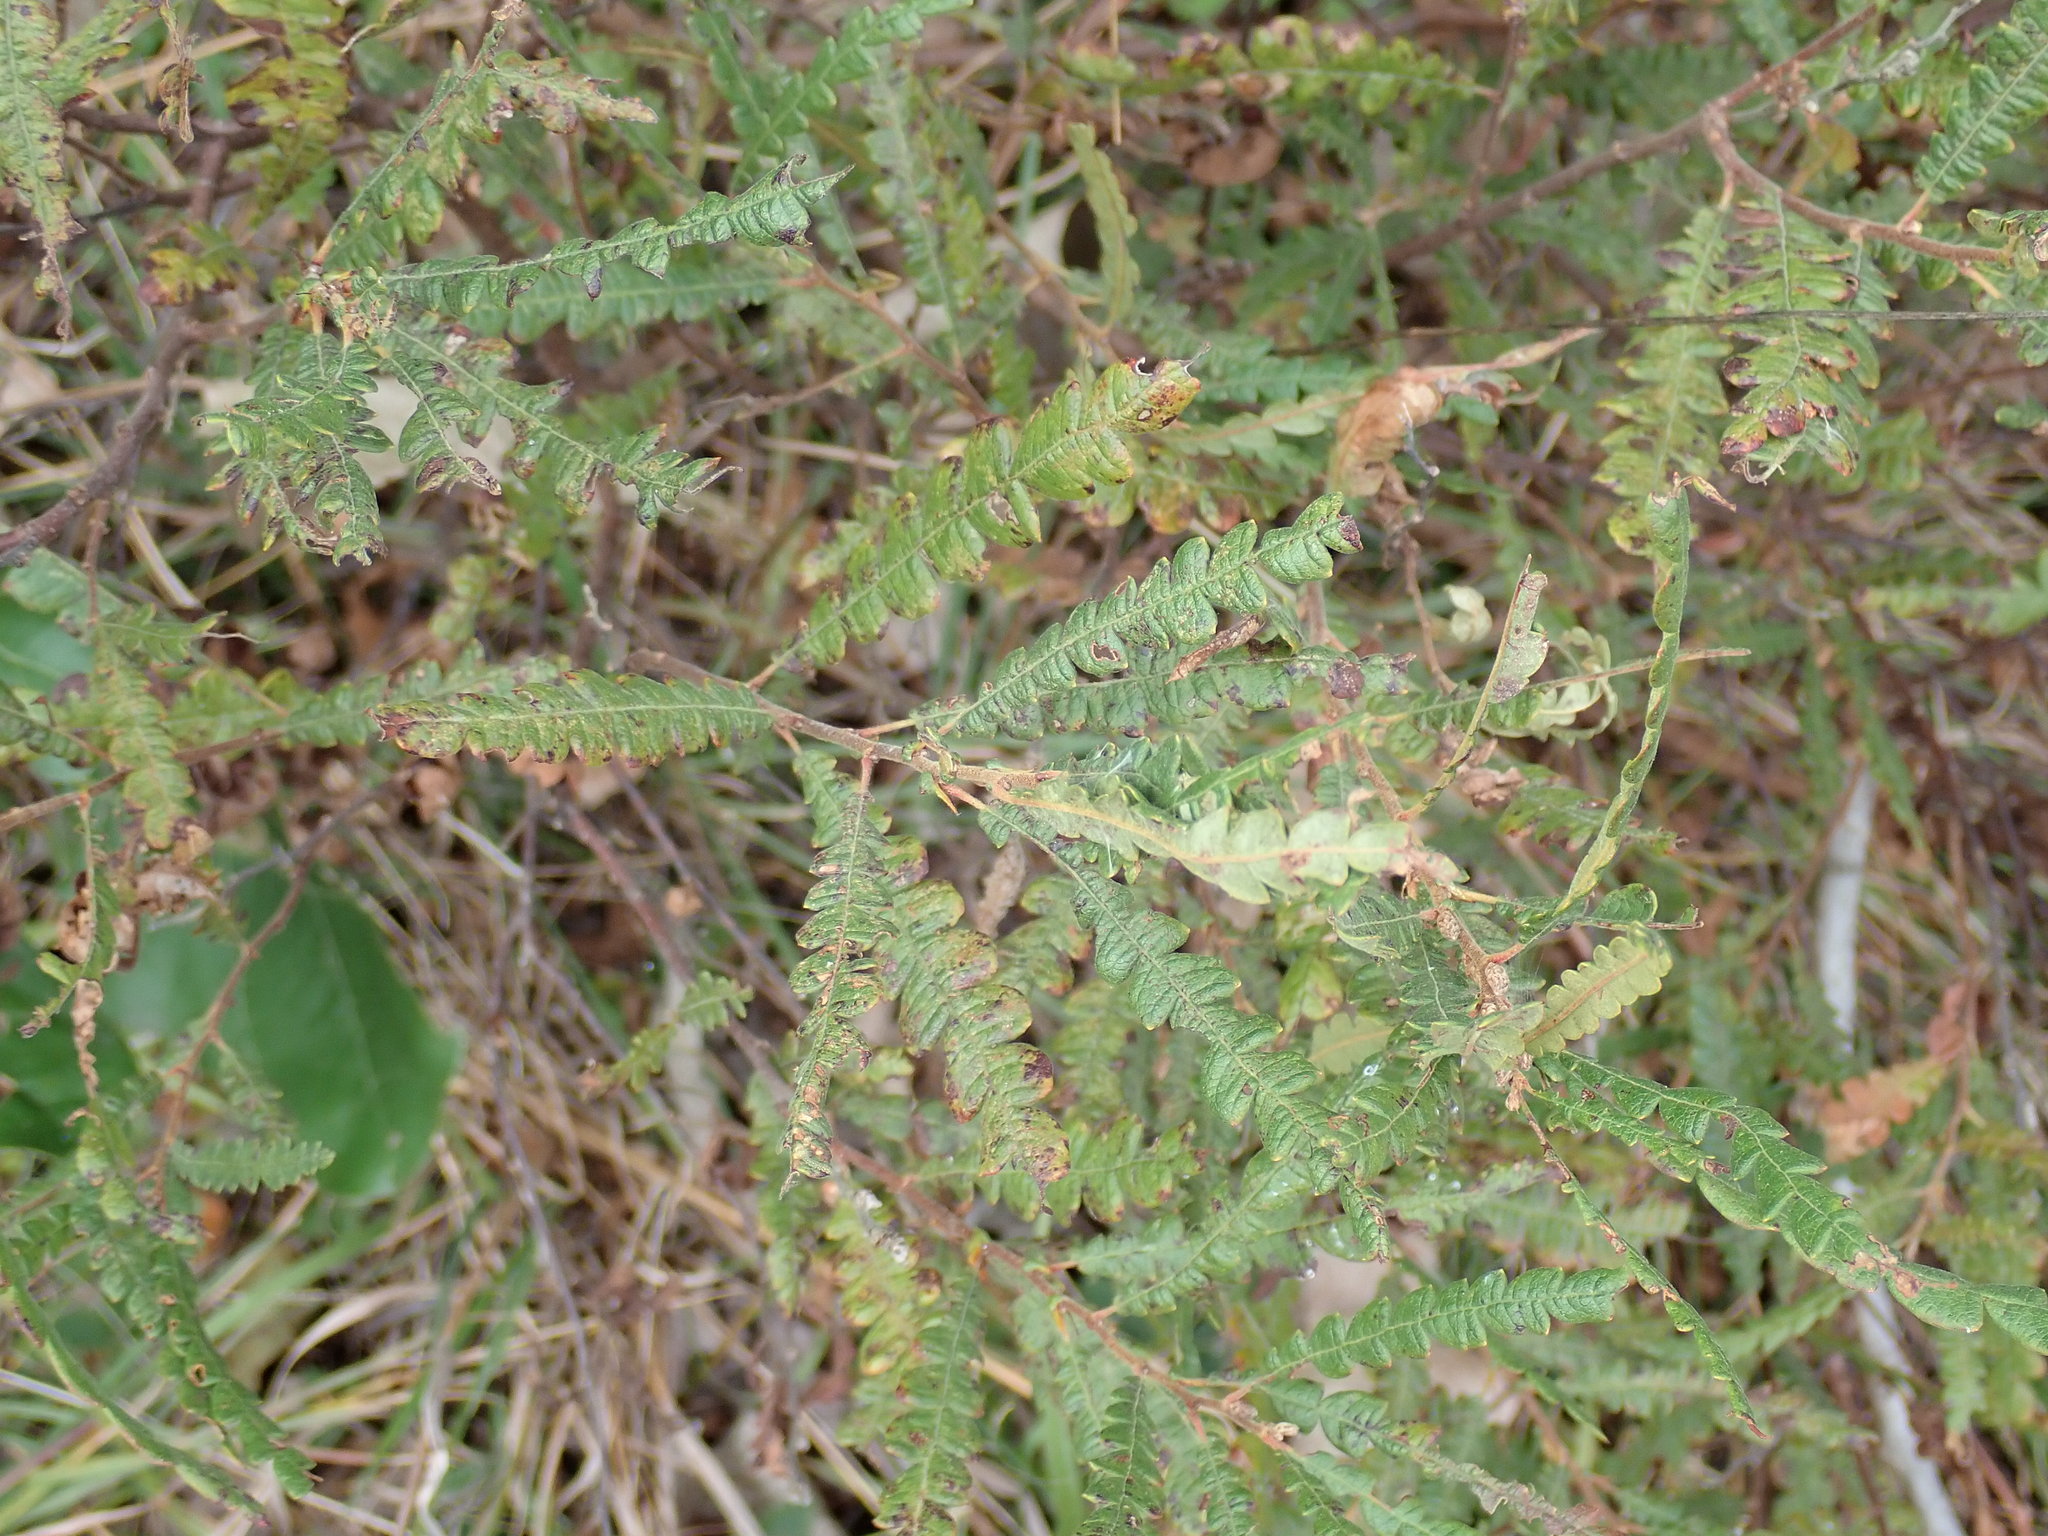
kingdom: Plantae
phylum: Tracheophyta
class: Magnoliopsida
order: Fagales
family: Myricaceae
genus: Comptonia
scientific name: Comptonia peregrina
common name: Sweet-fern
